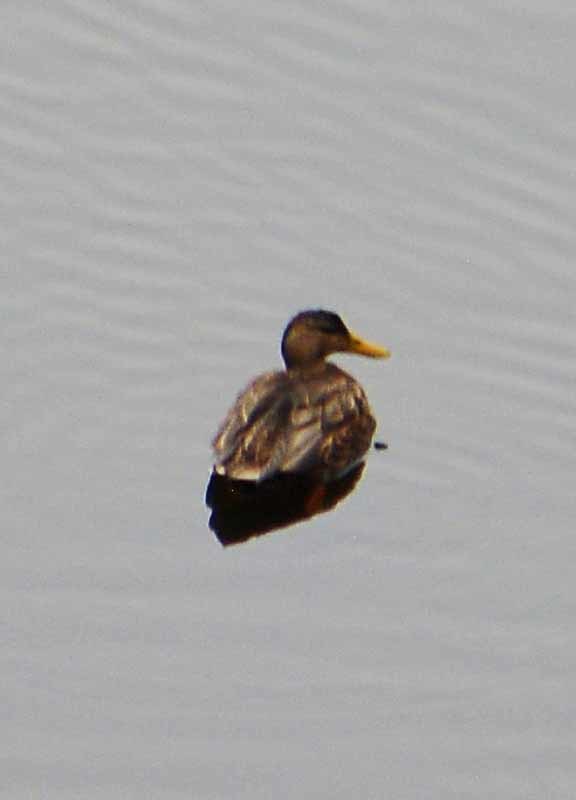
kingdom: Animalia
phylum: Chordata
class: Aves
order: Anseriformes
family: Anatidae
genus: Anas
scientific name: Anas diazi
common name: Mexican duck
